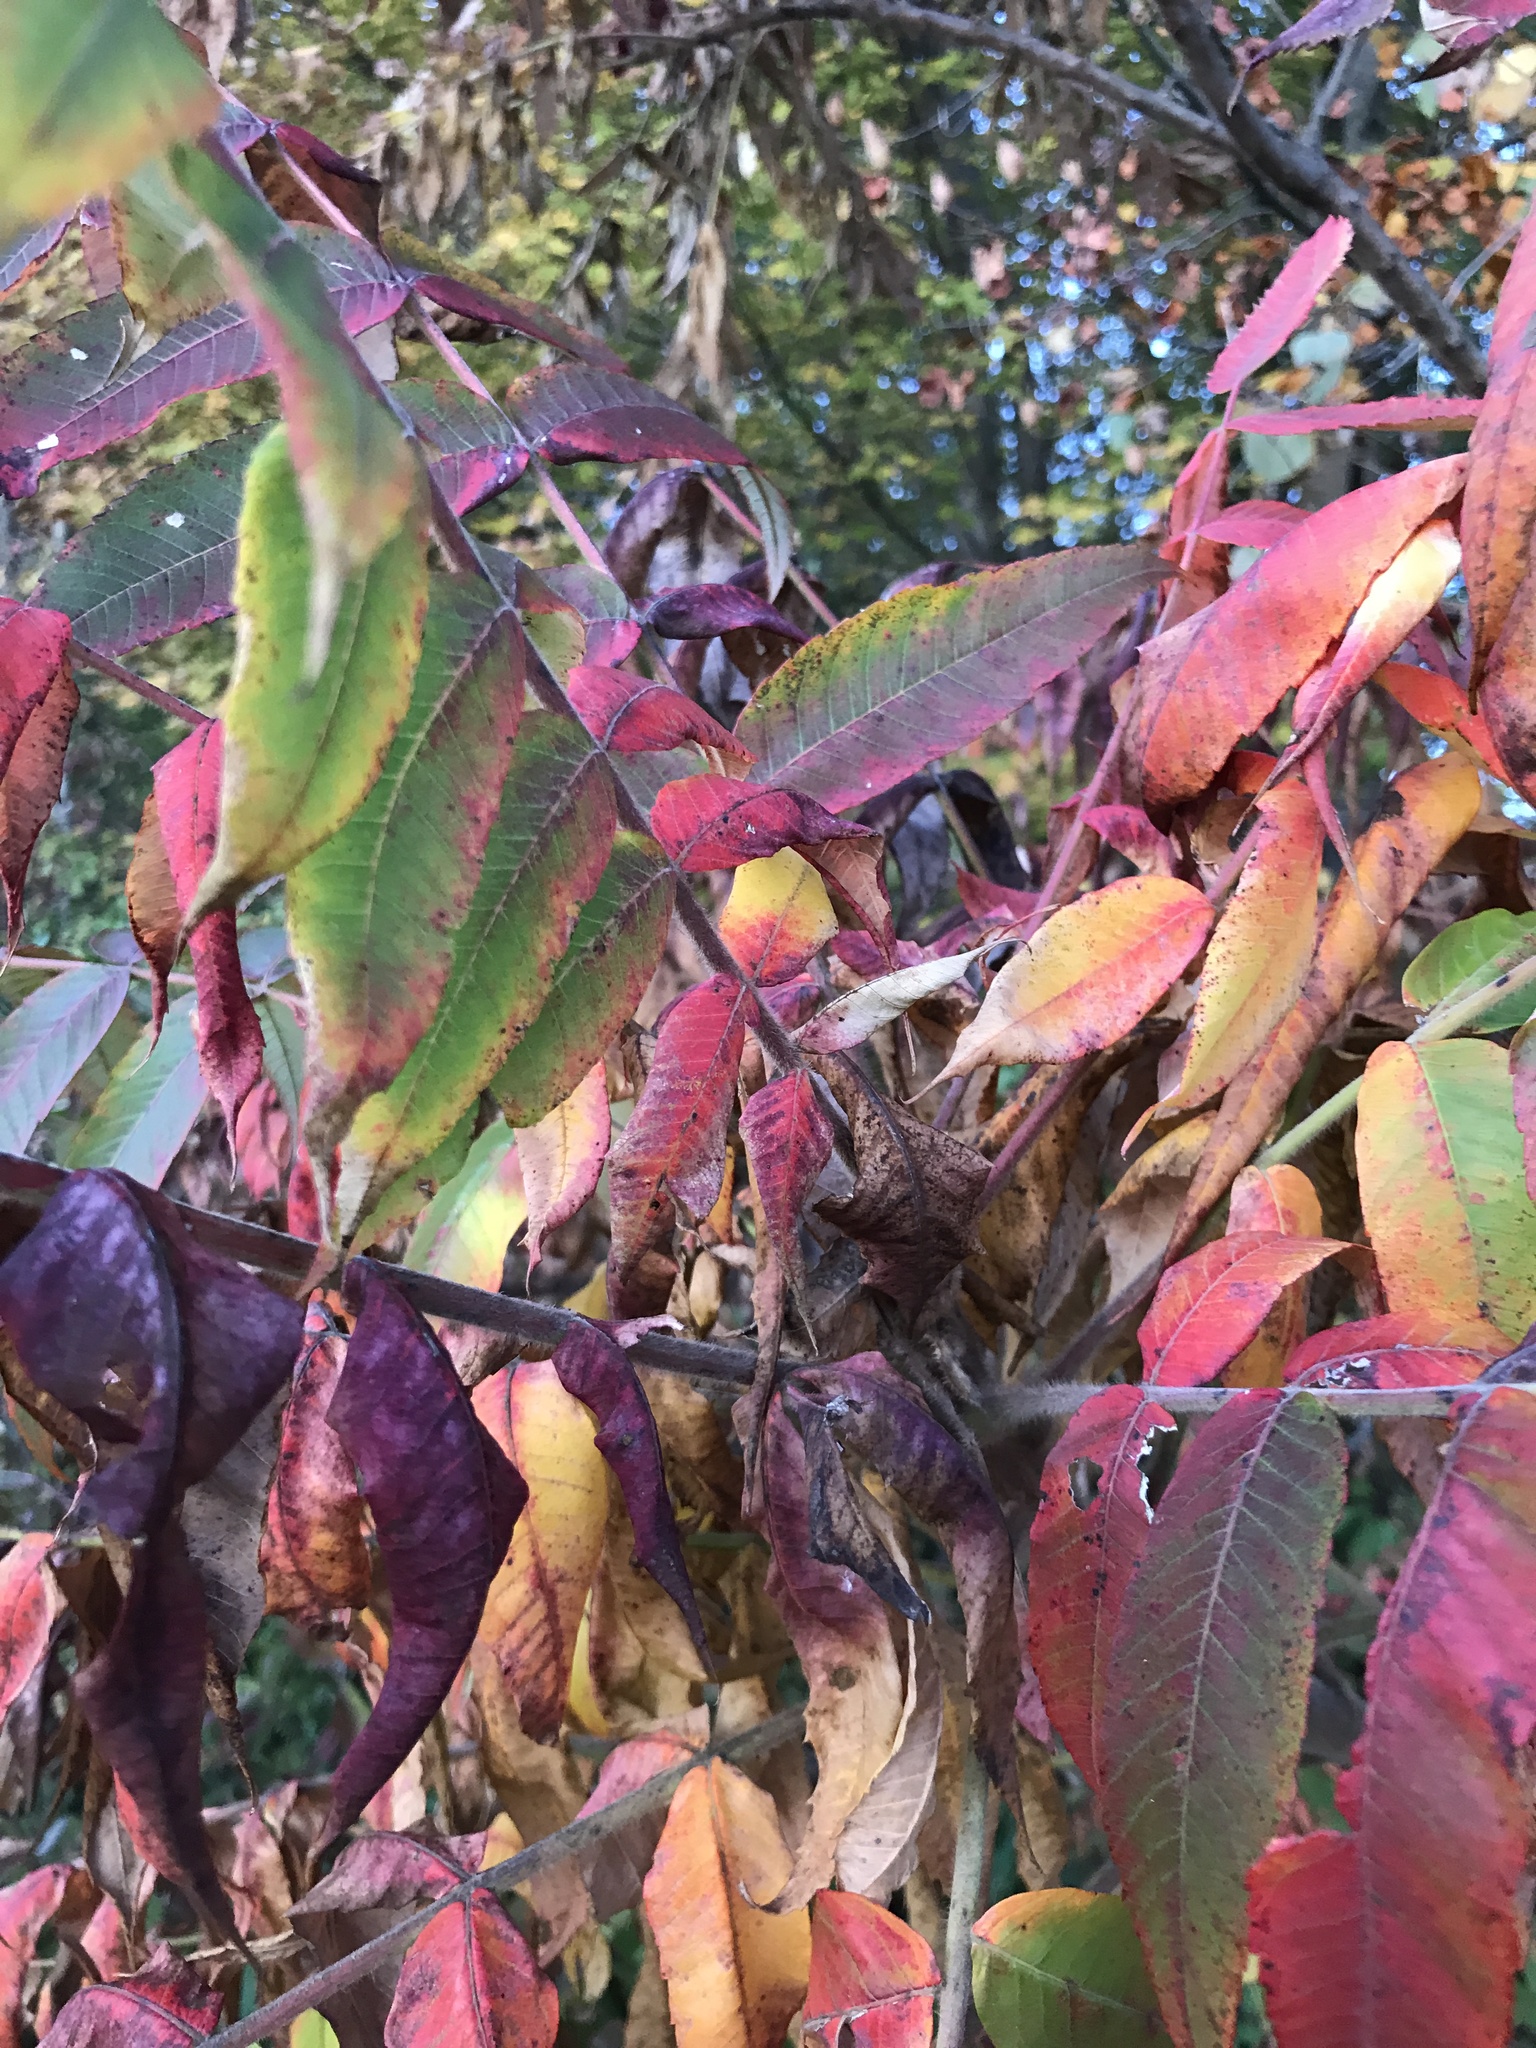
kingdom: Plantae
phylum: Tracheophyta
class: Magnoliopsida
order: Sapindales
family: Anacardiaceae
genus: Rhus
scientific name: Rhus typhina
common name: Staghorn sumac
